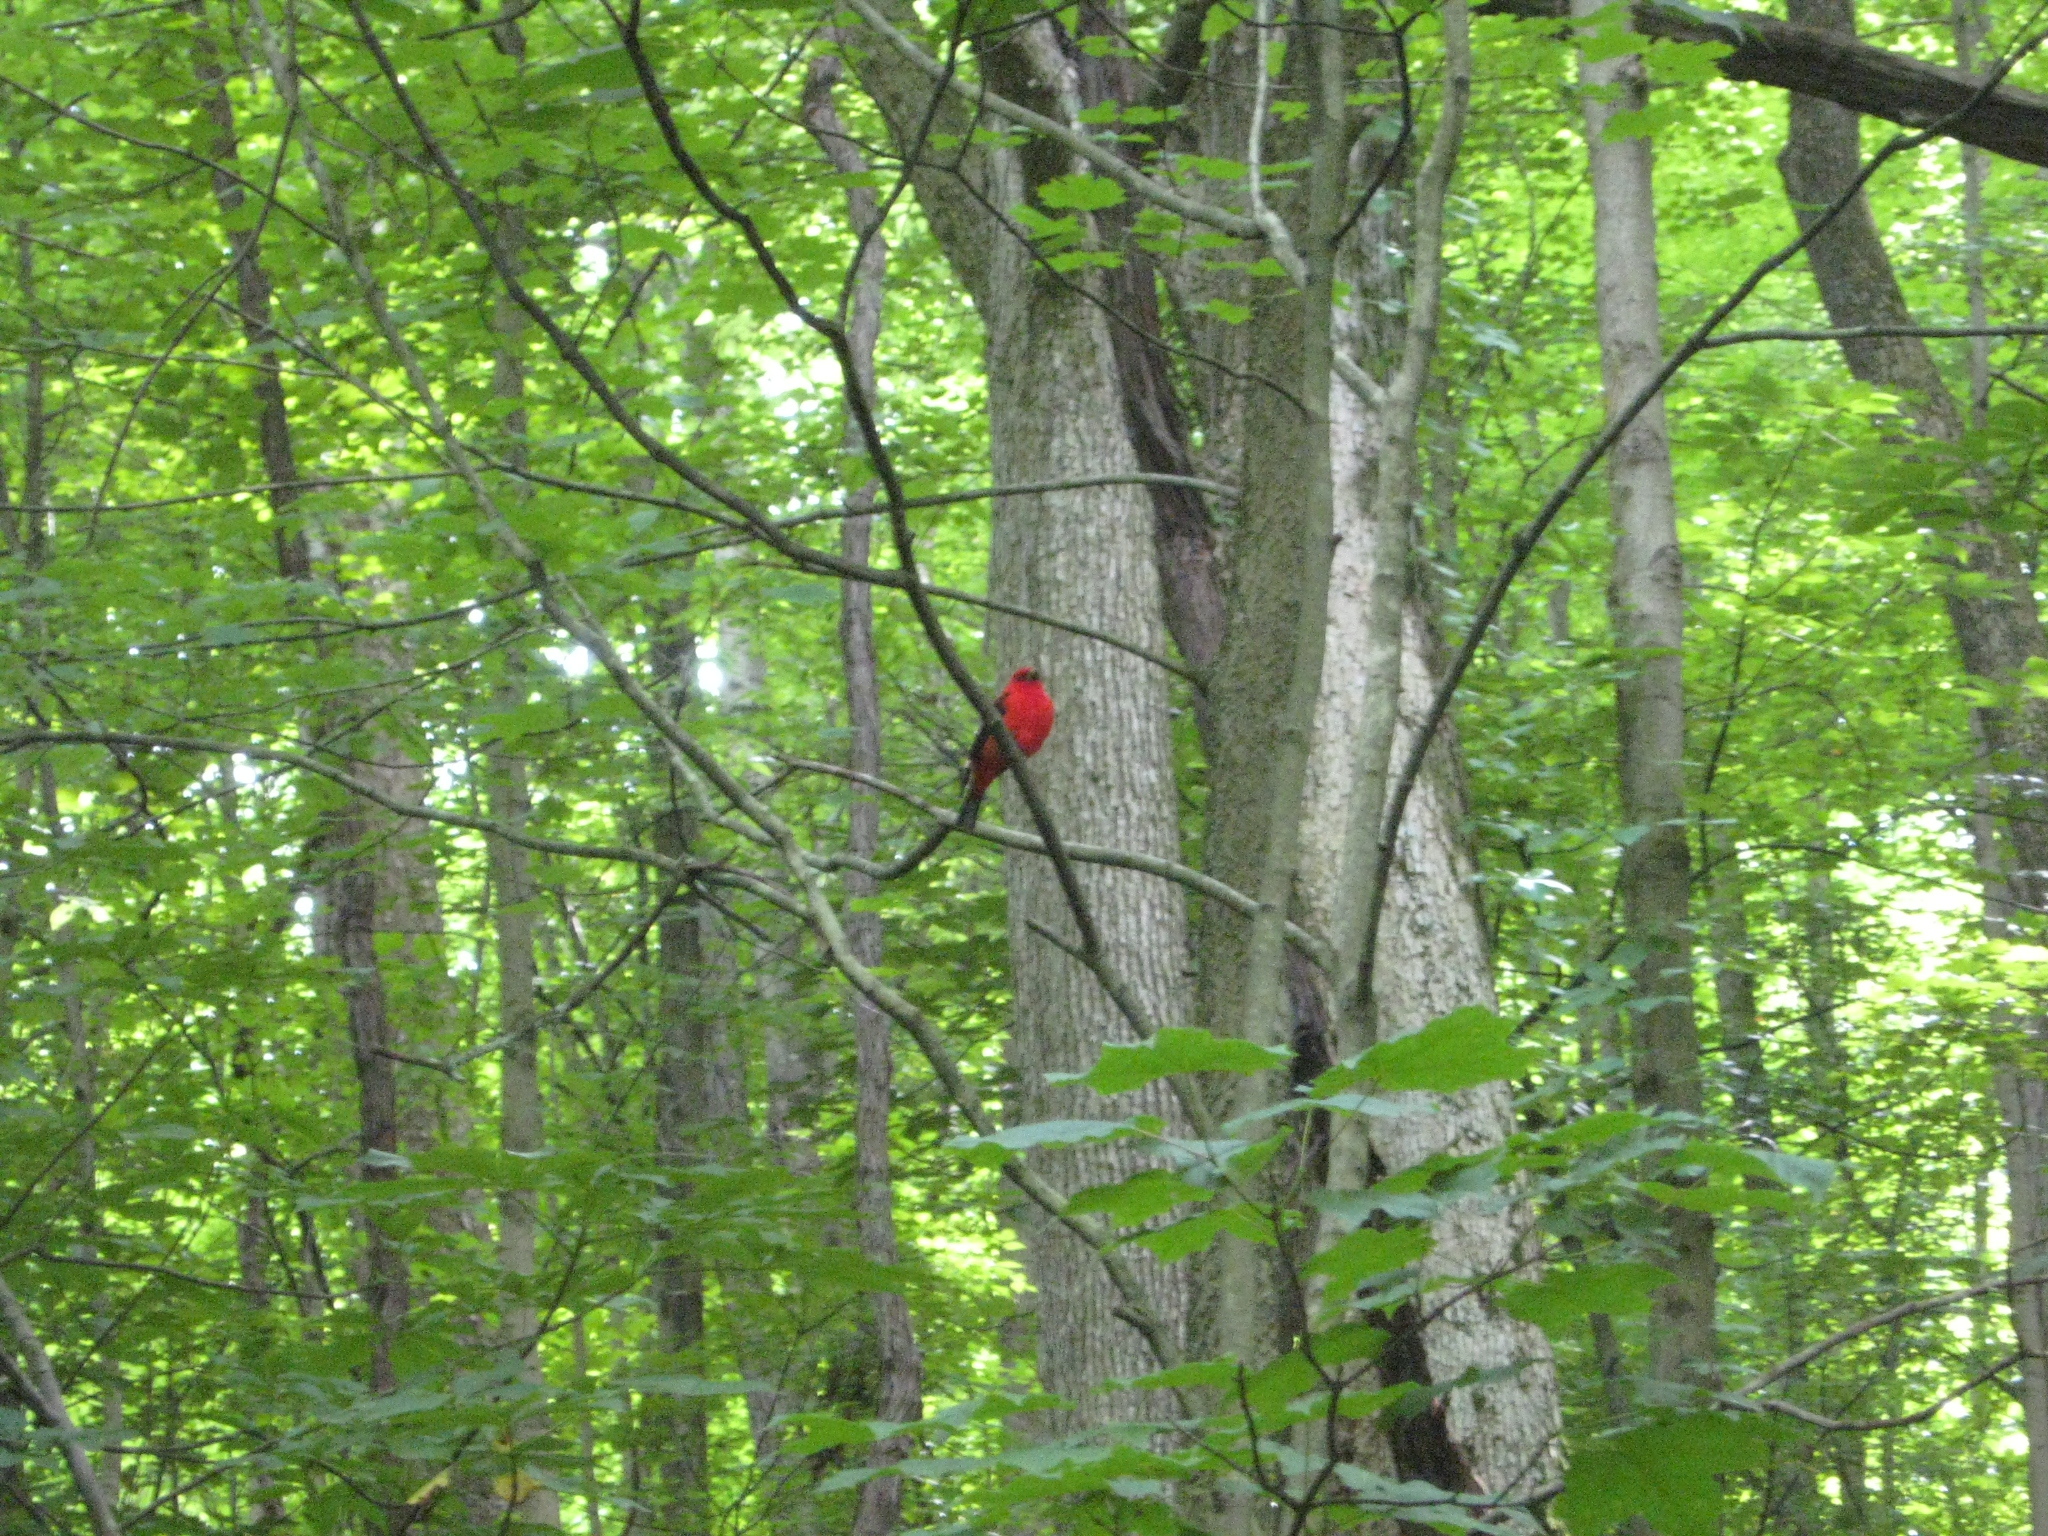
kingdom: Animalia
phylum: Chordata
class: Aves
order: Passeriformes
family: Cardinalidae
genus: Piranga
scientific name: Piranga olivacea
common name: Scarlet tanager
